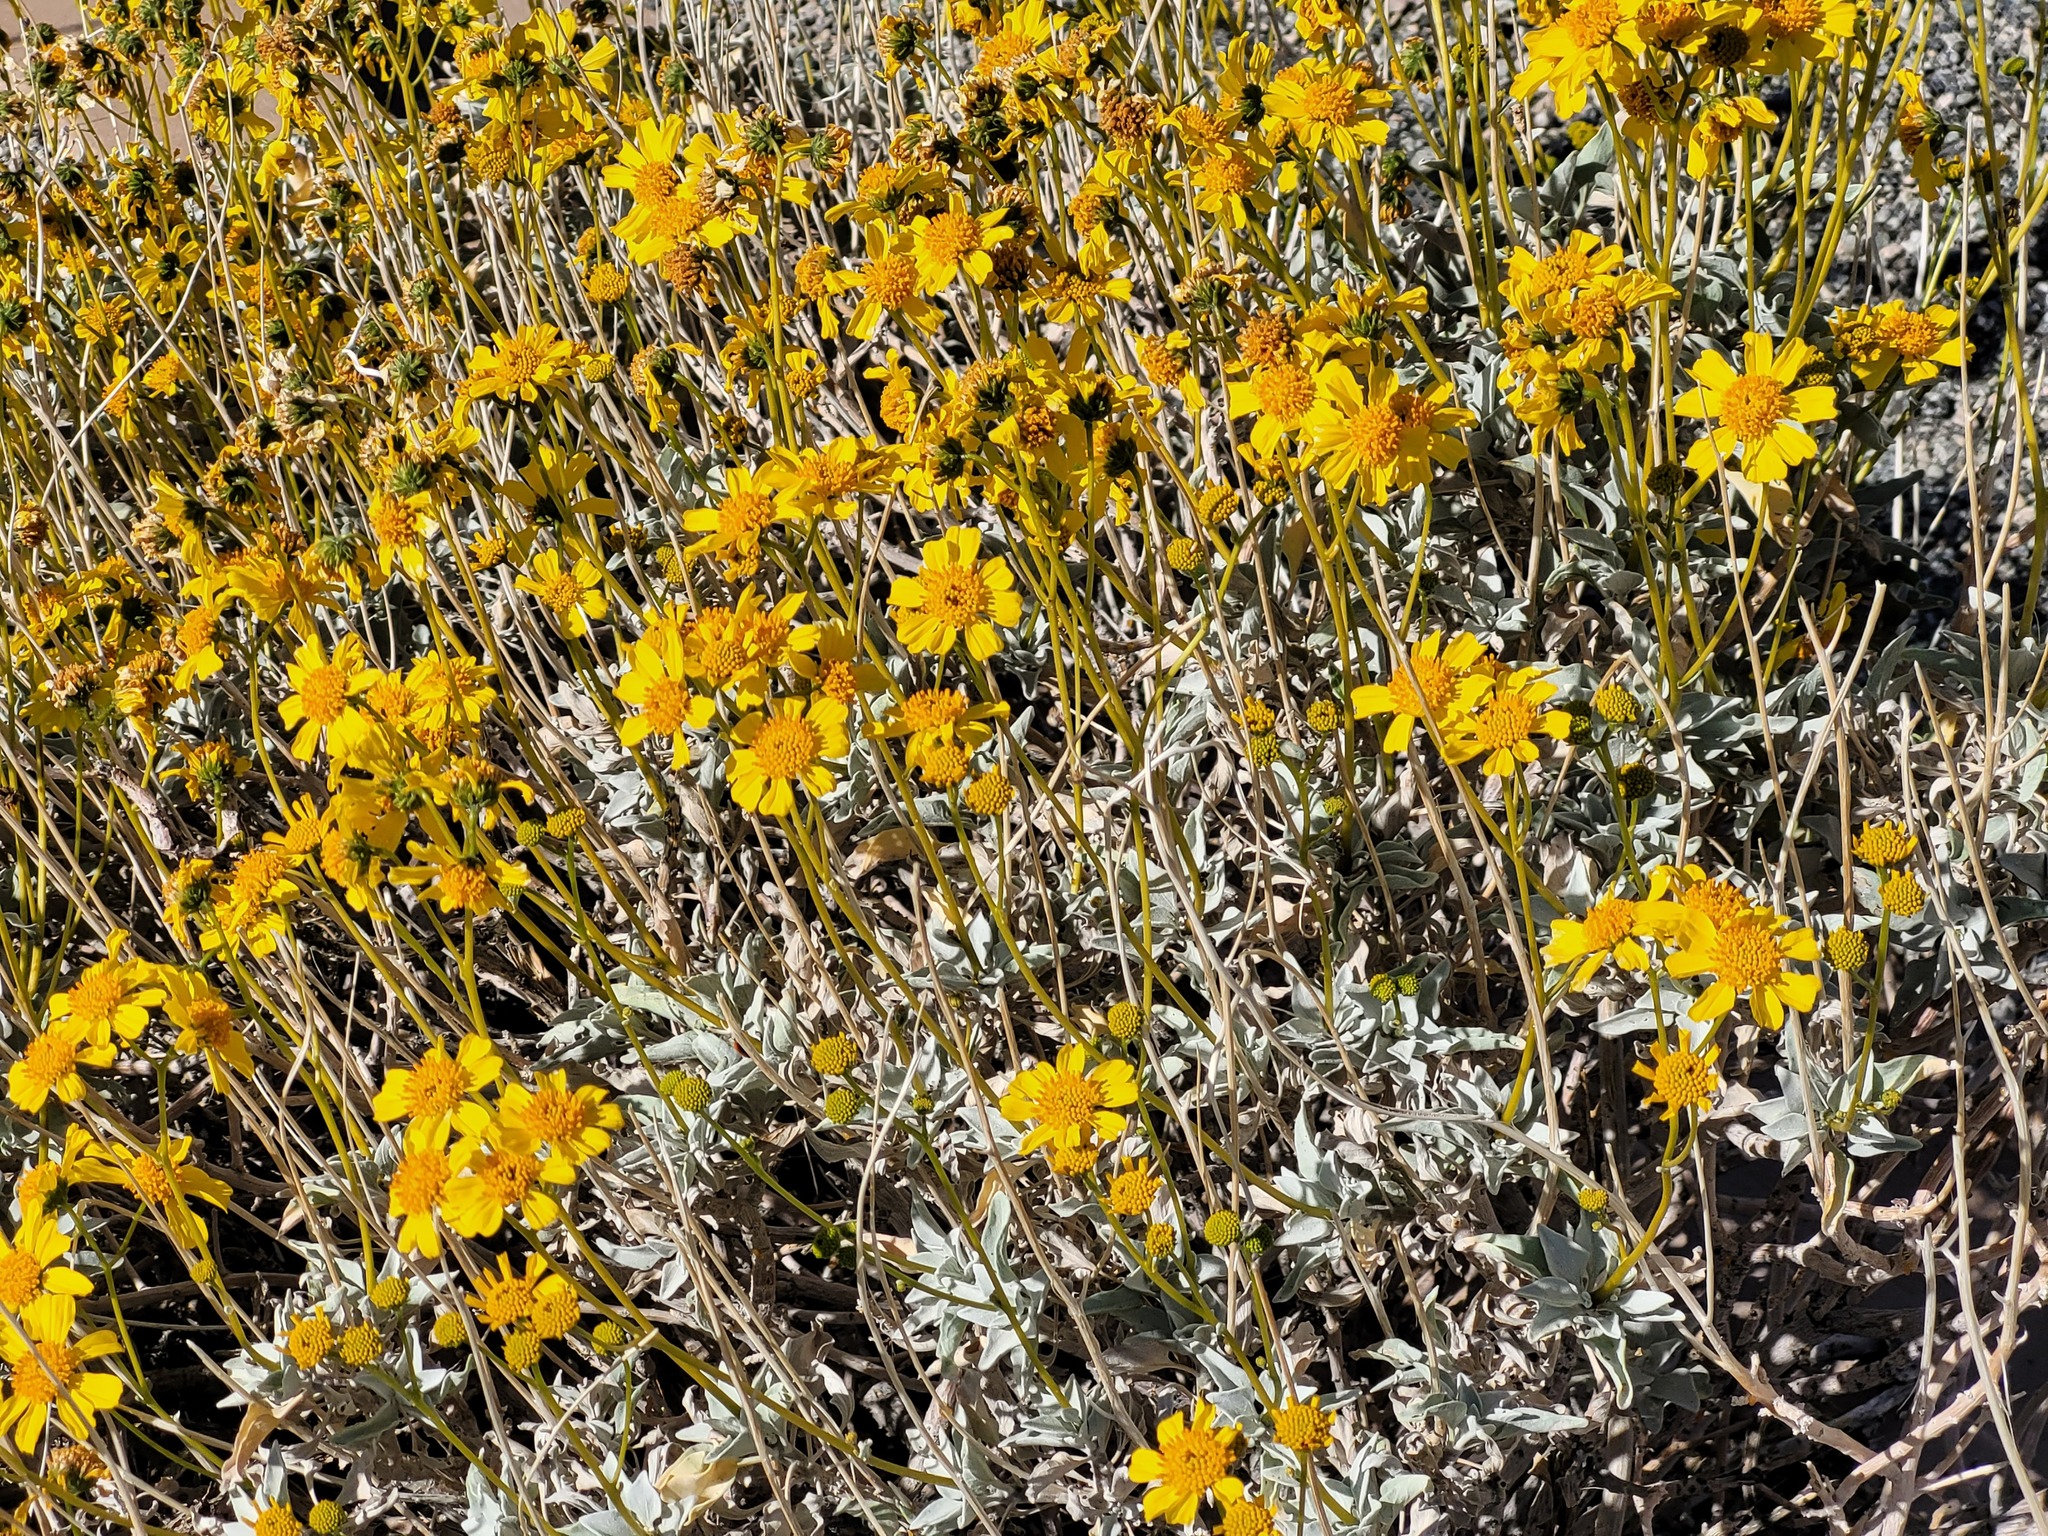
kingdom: Plantae
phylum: Tracheophyta
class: Magnoliopsida
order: Asterales
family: Asteraceae
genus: Encelia
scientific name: Encelia farinosa
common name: Brittlebush
